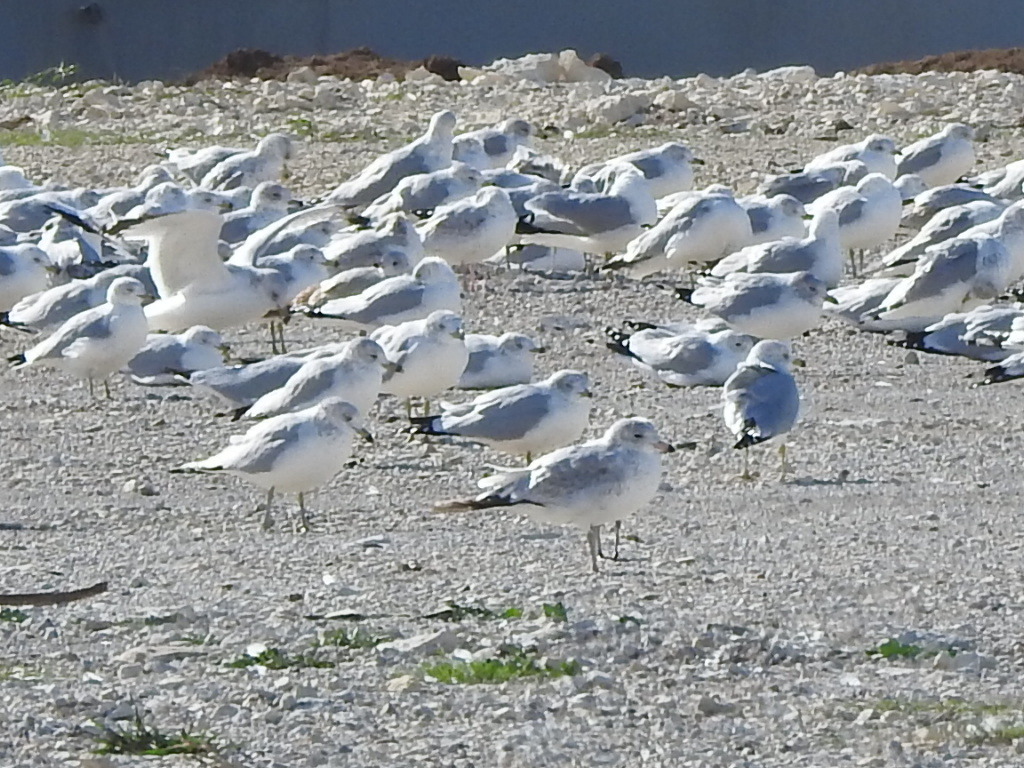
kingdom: Animalia
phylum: Chordata
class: Aves
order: Charadriiformes
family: Laridae
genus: Larus
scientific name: Larus delawarensis
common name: Ring-billed gull
